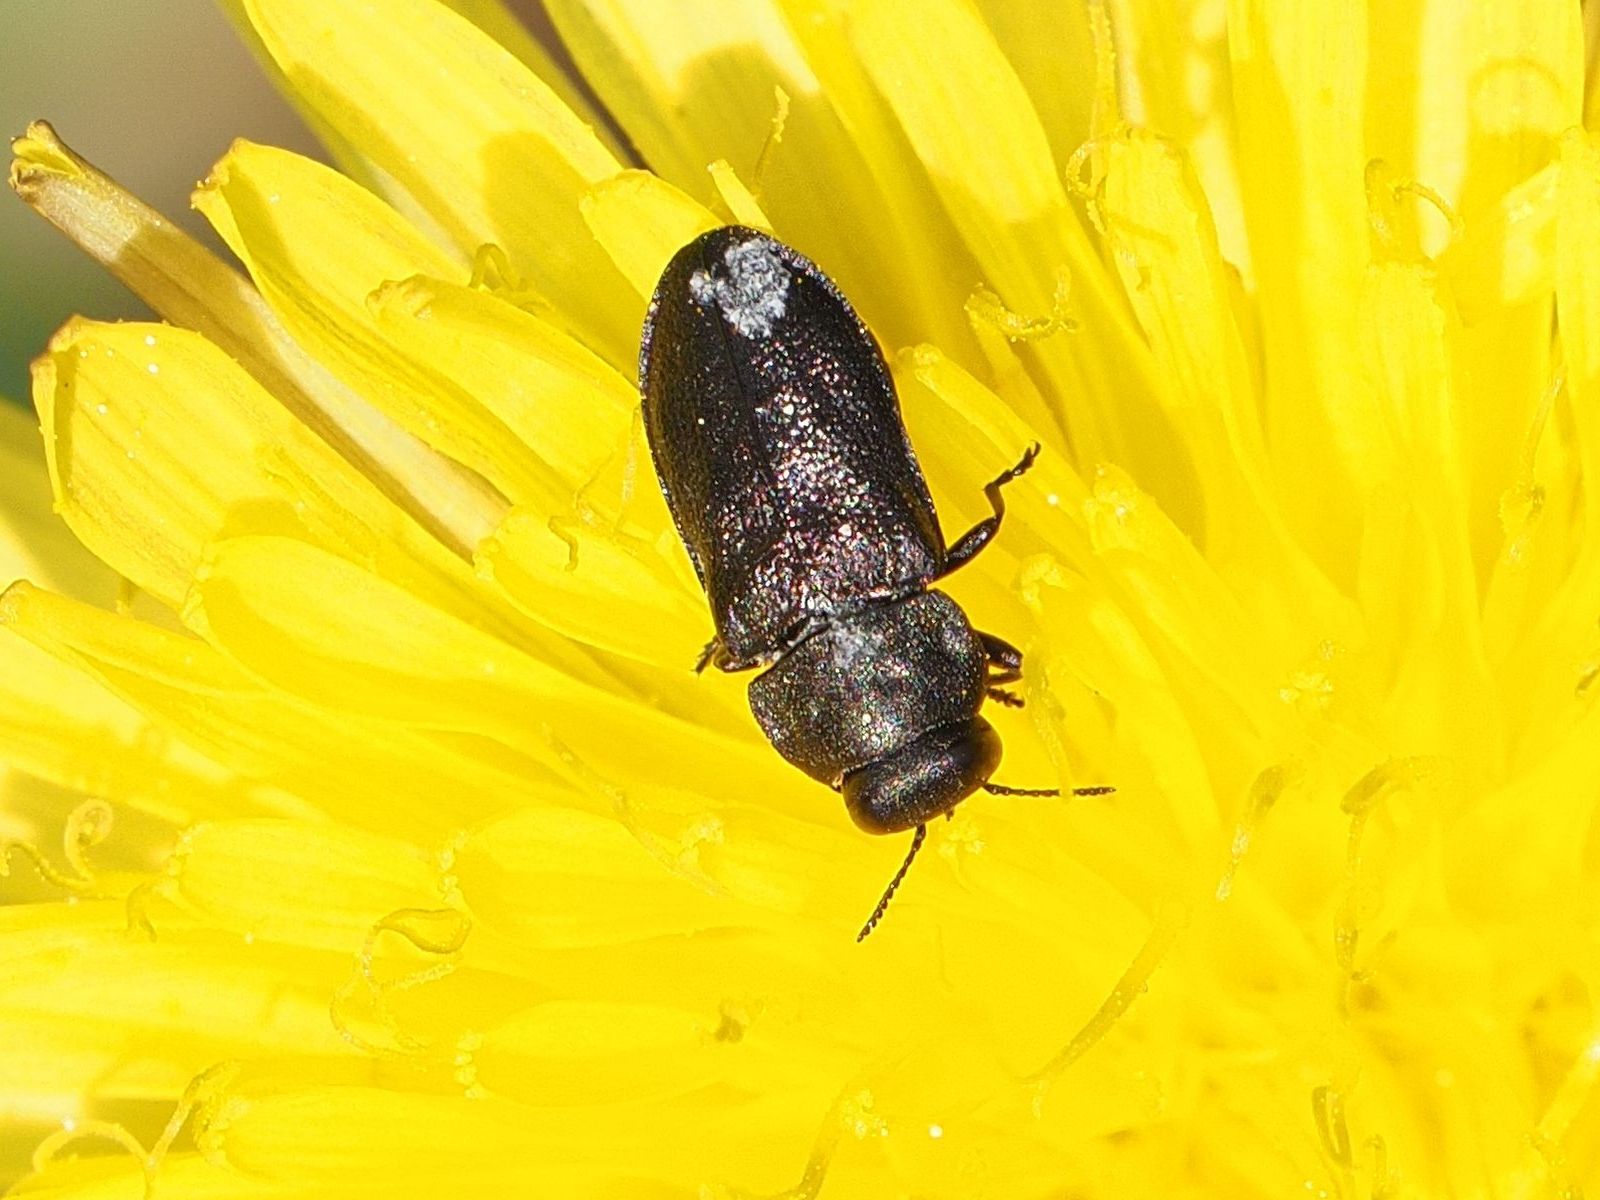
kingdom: Animalia
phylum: Arthropoda
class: Insecta
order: Coleoptera
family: Buprestidae
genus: Anthaxia
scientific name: Anthaxia quadripunctata
